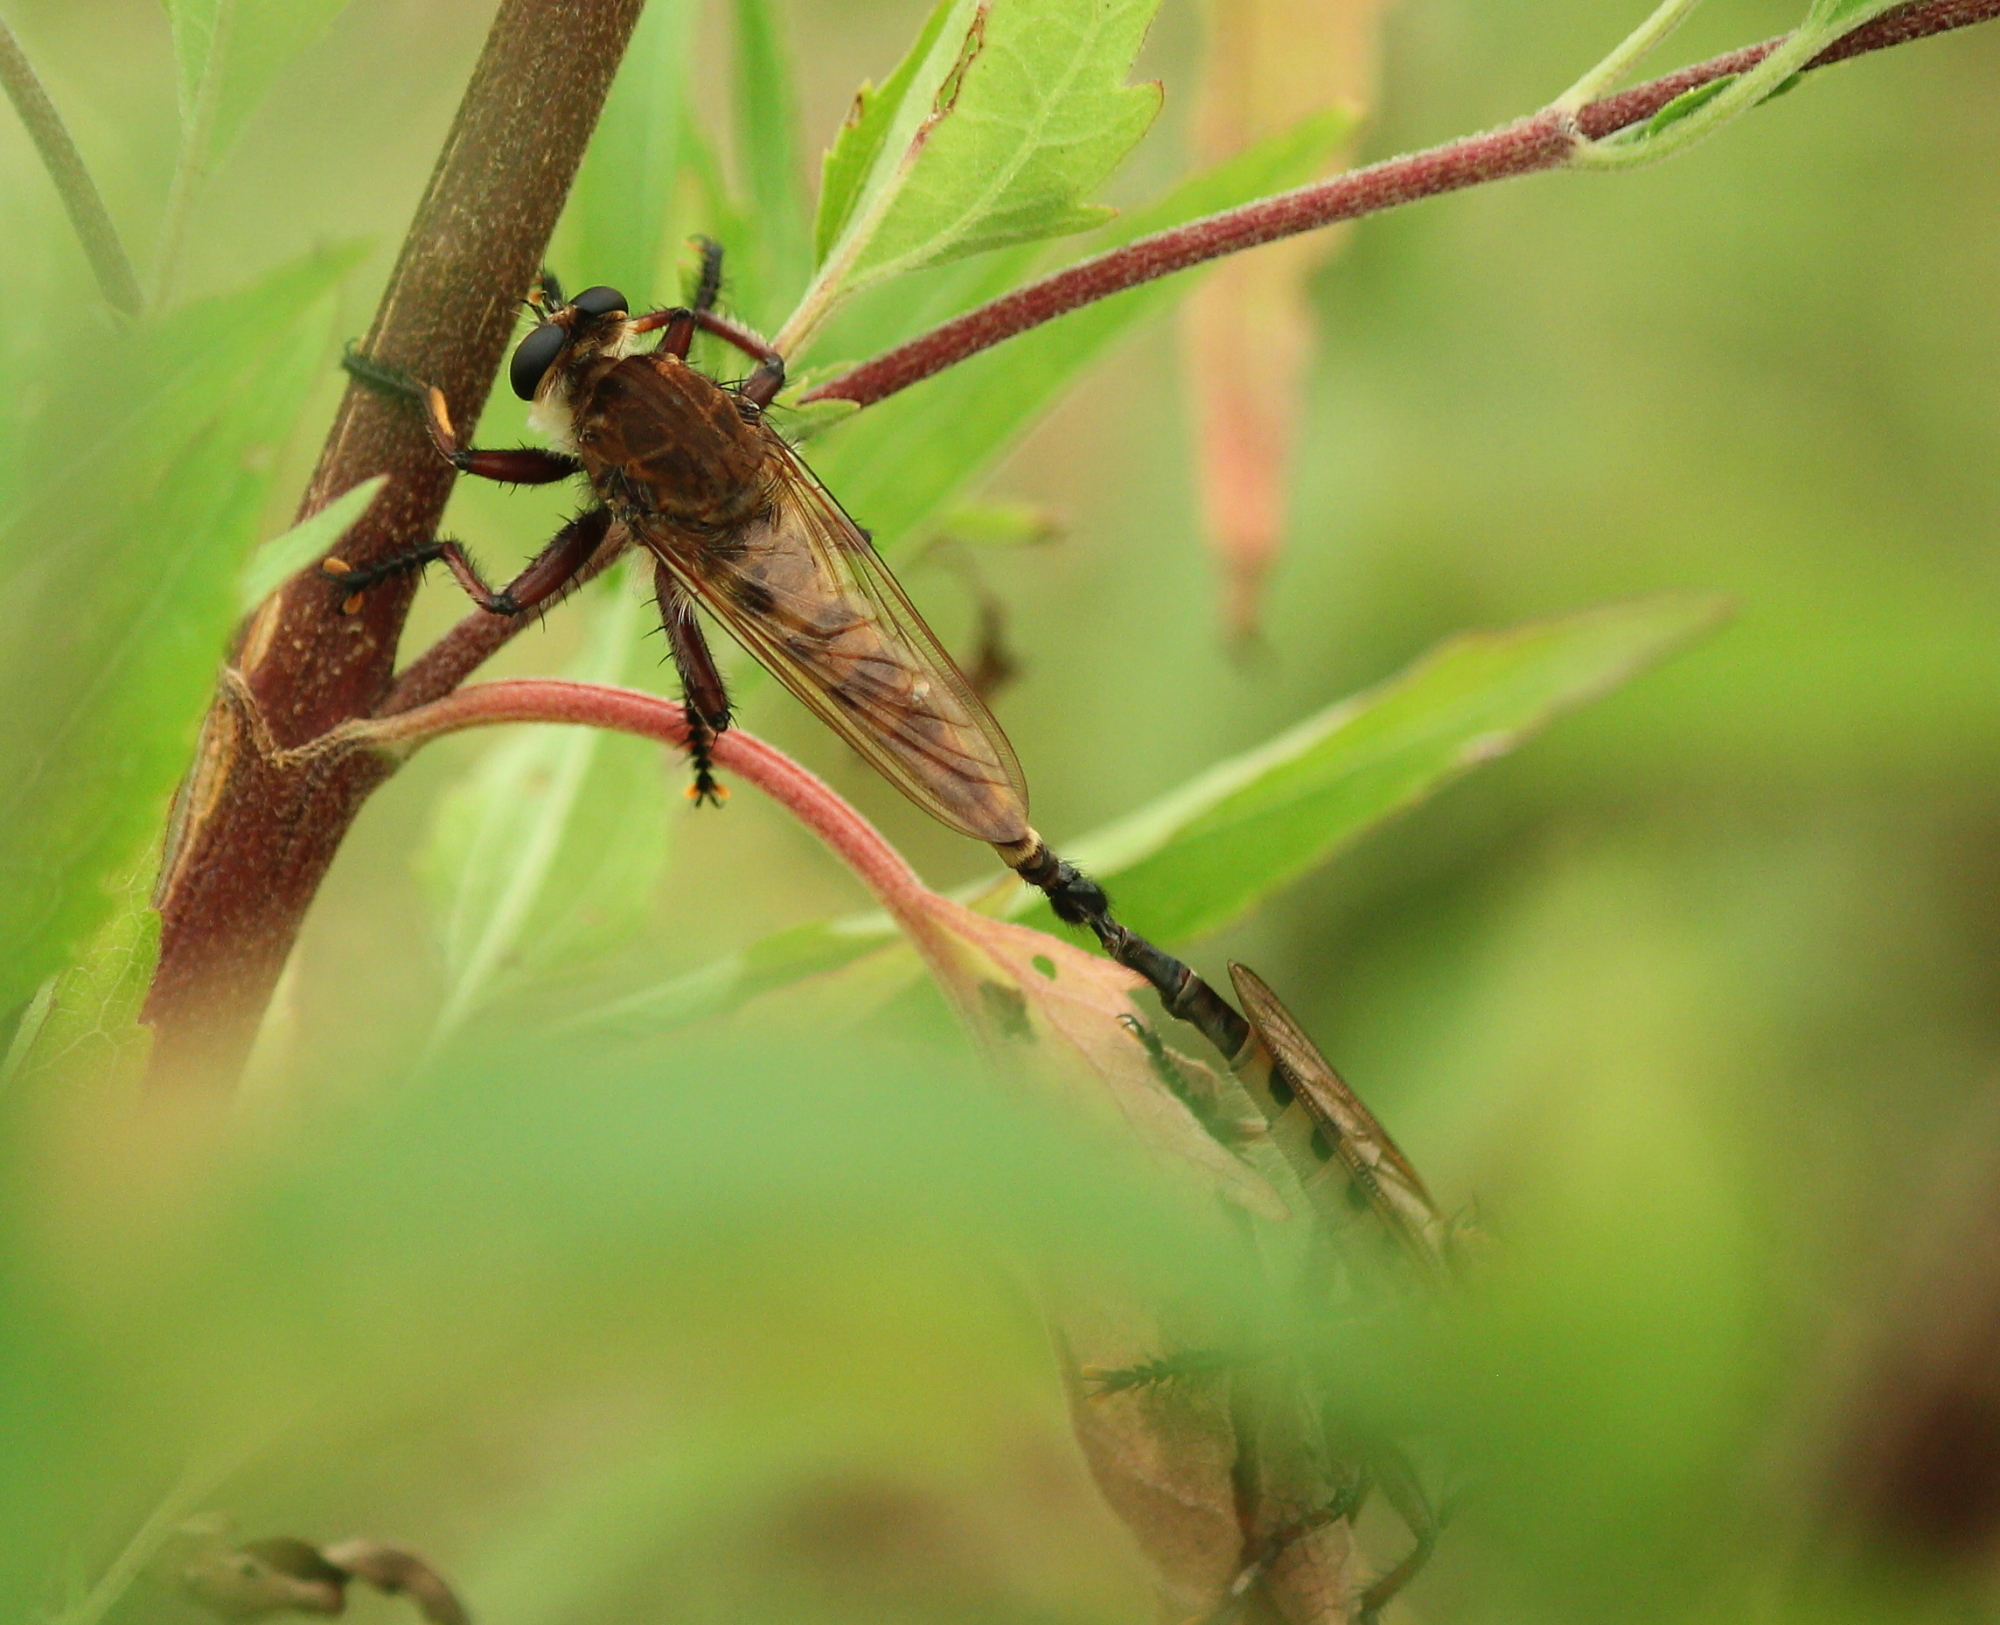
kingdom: Animalia
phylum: Arthropoda
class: Insecta
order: Diptera
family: Asilidae
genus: Promachus
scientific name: Promachus hinei
